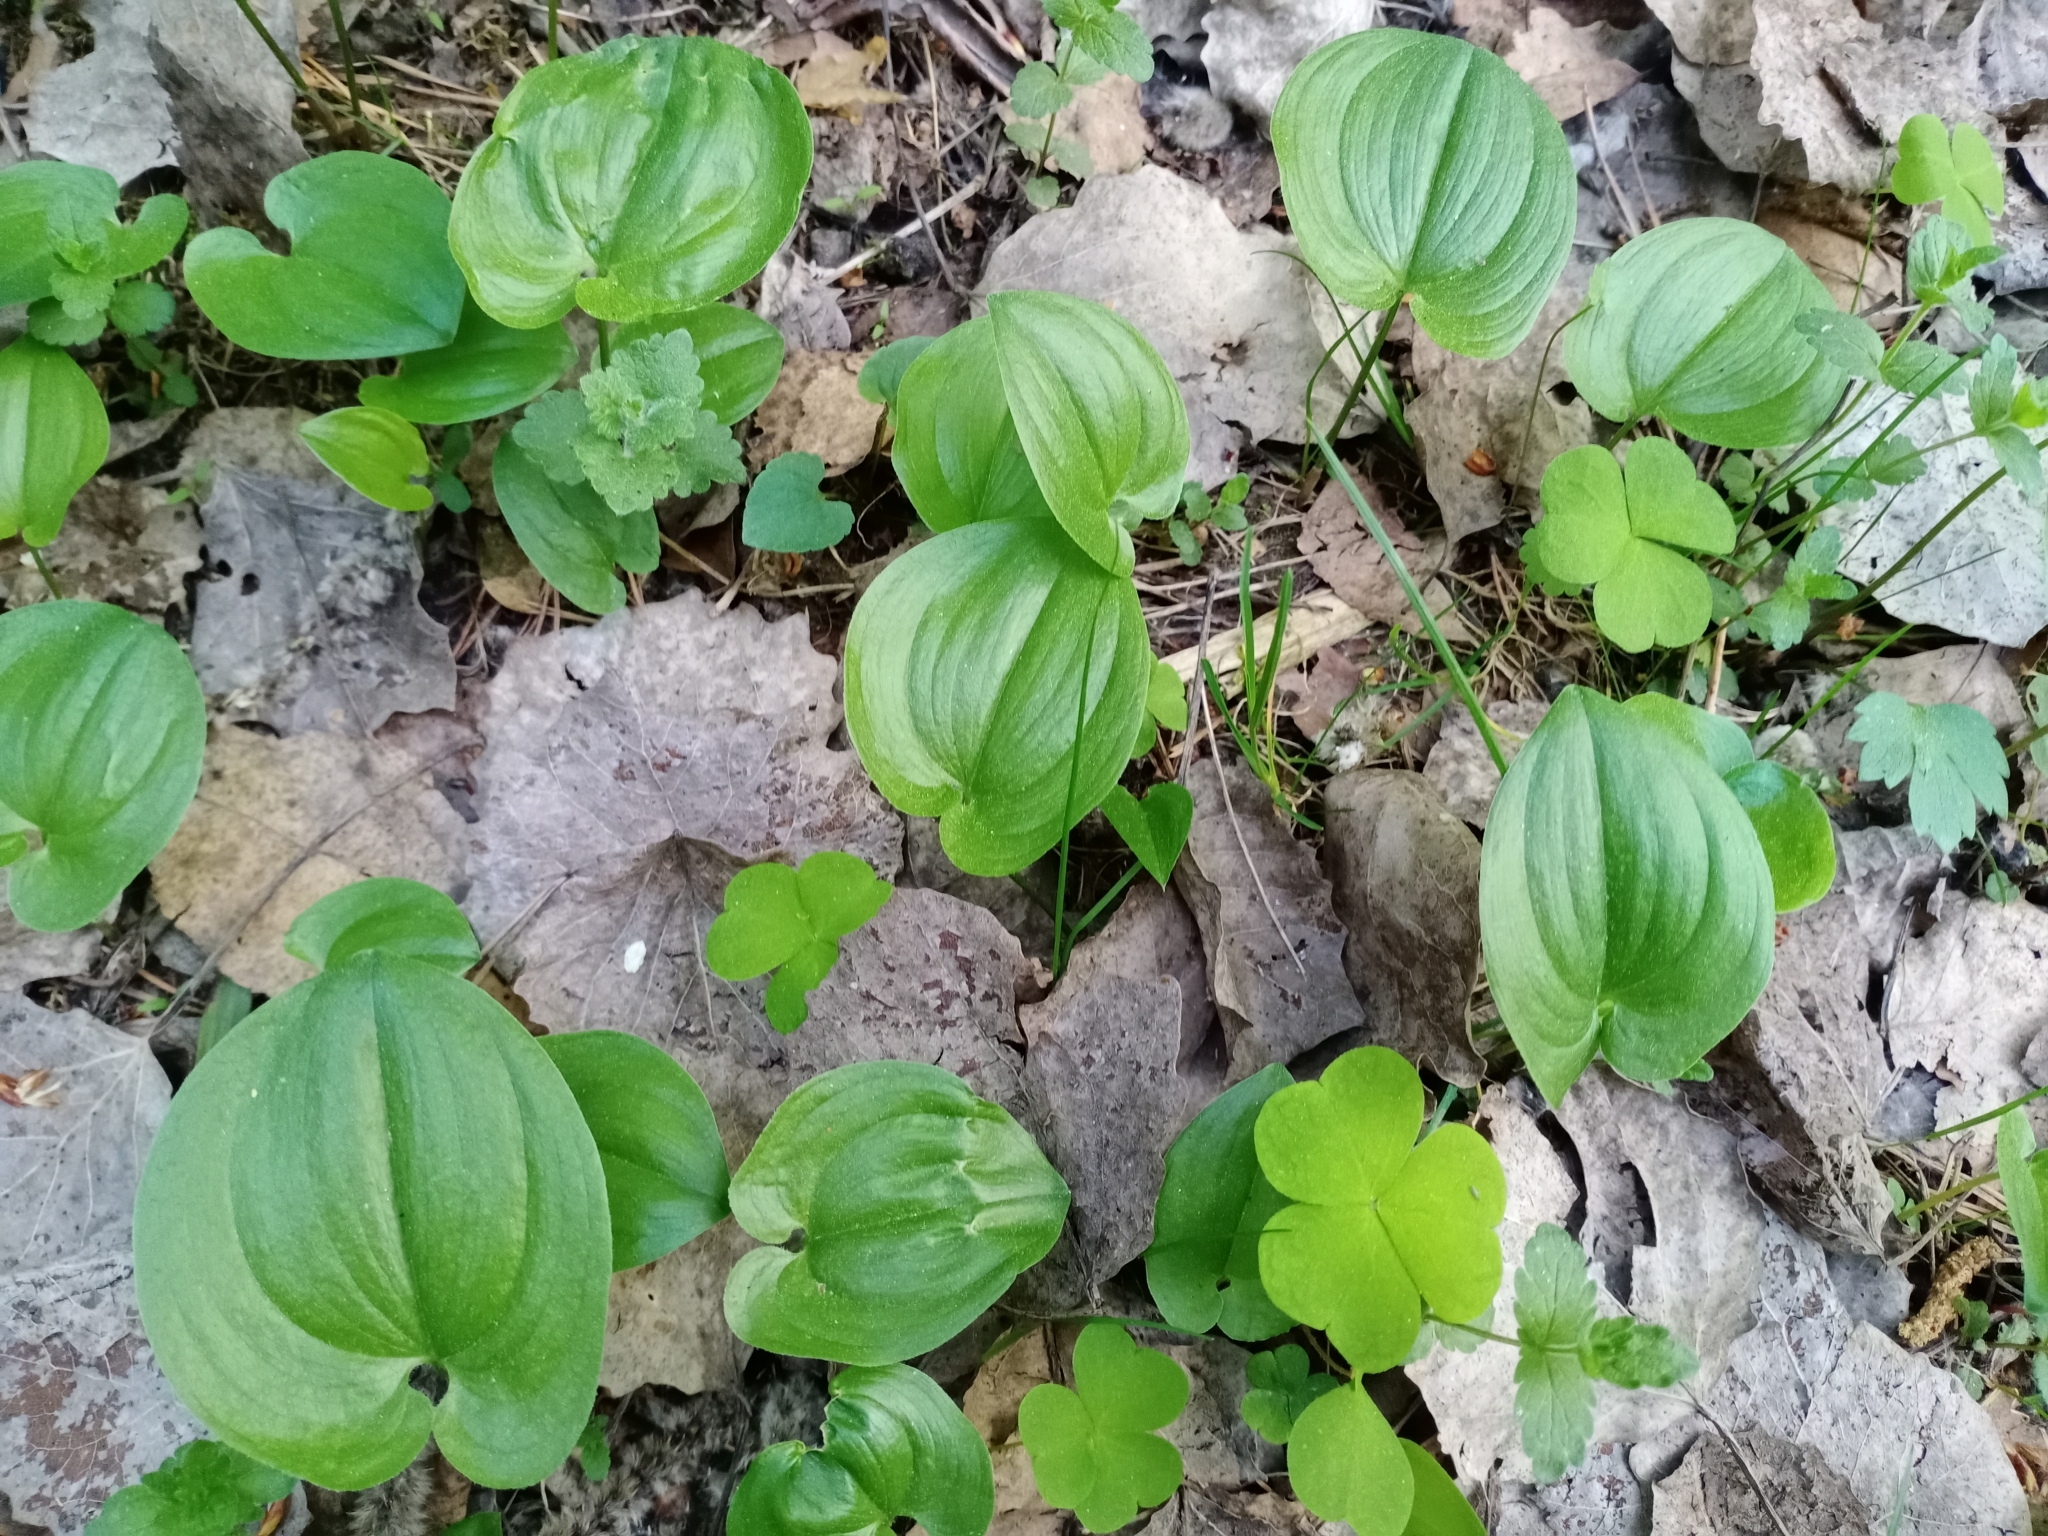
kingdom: Plantae
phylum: Tracheophyta
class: Liliopsida
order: Asparagales
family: Asparagaceae
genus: Maianthemum
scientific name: Maianthemum bifolium
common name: May lily
